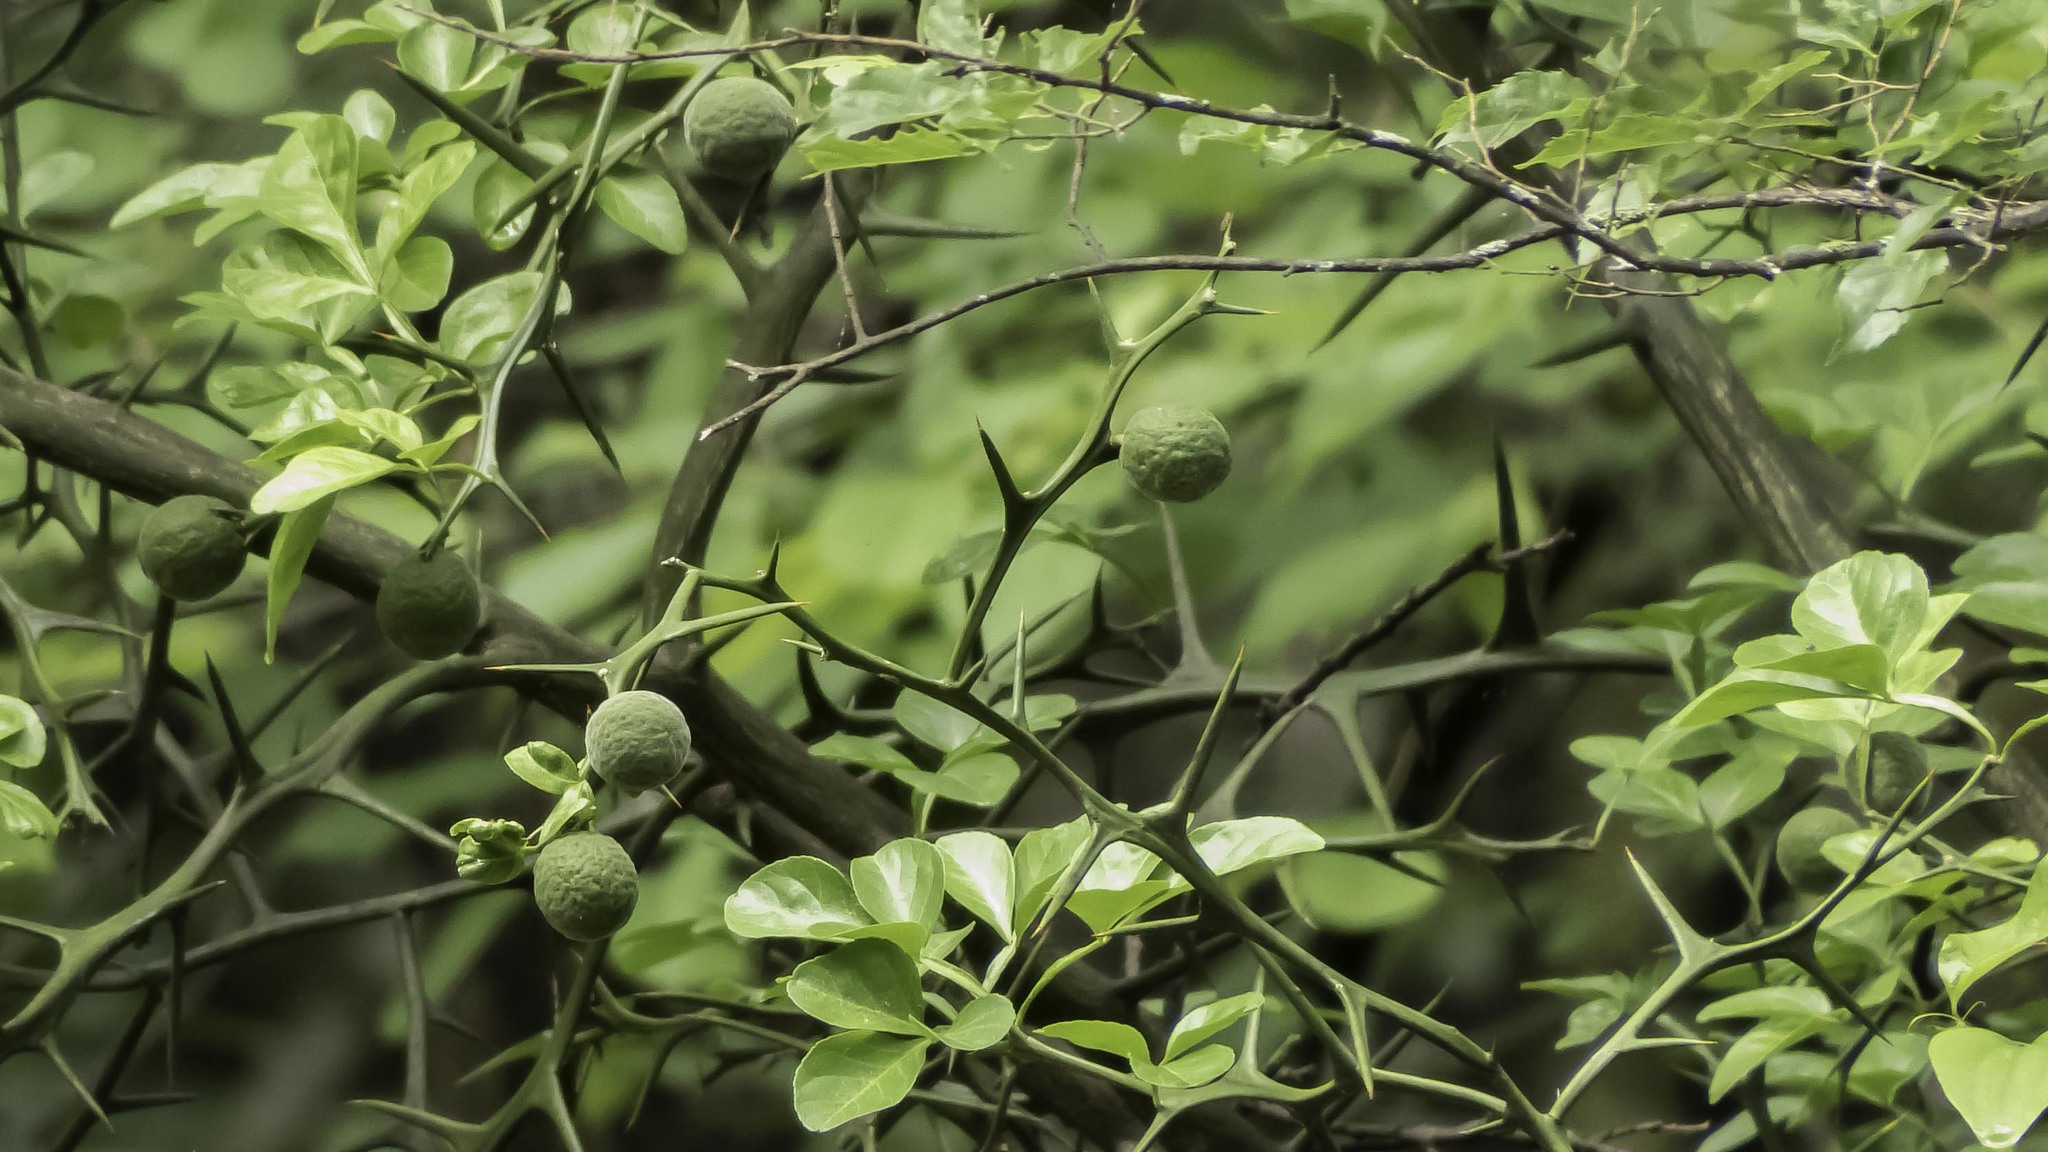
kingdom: Plantae
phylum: Tracheophyta
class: Magnoliopsida
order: Sapindales
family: Rutaceae
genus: Citrus
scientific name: Citrus trifoliata
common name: Japanese bitter-orange
